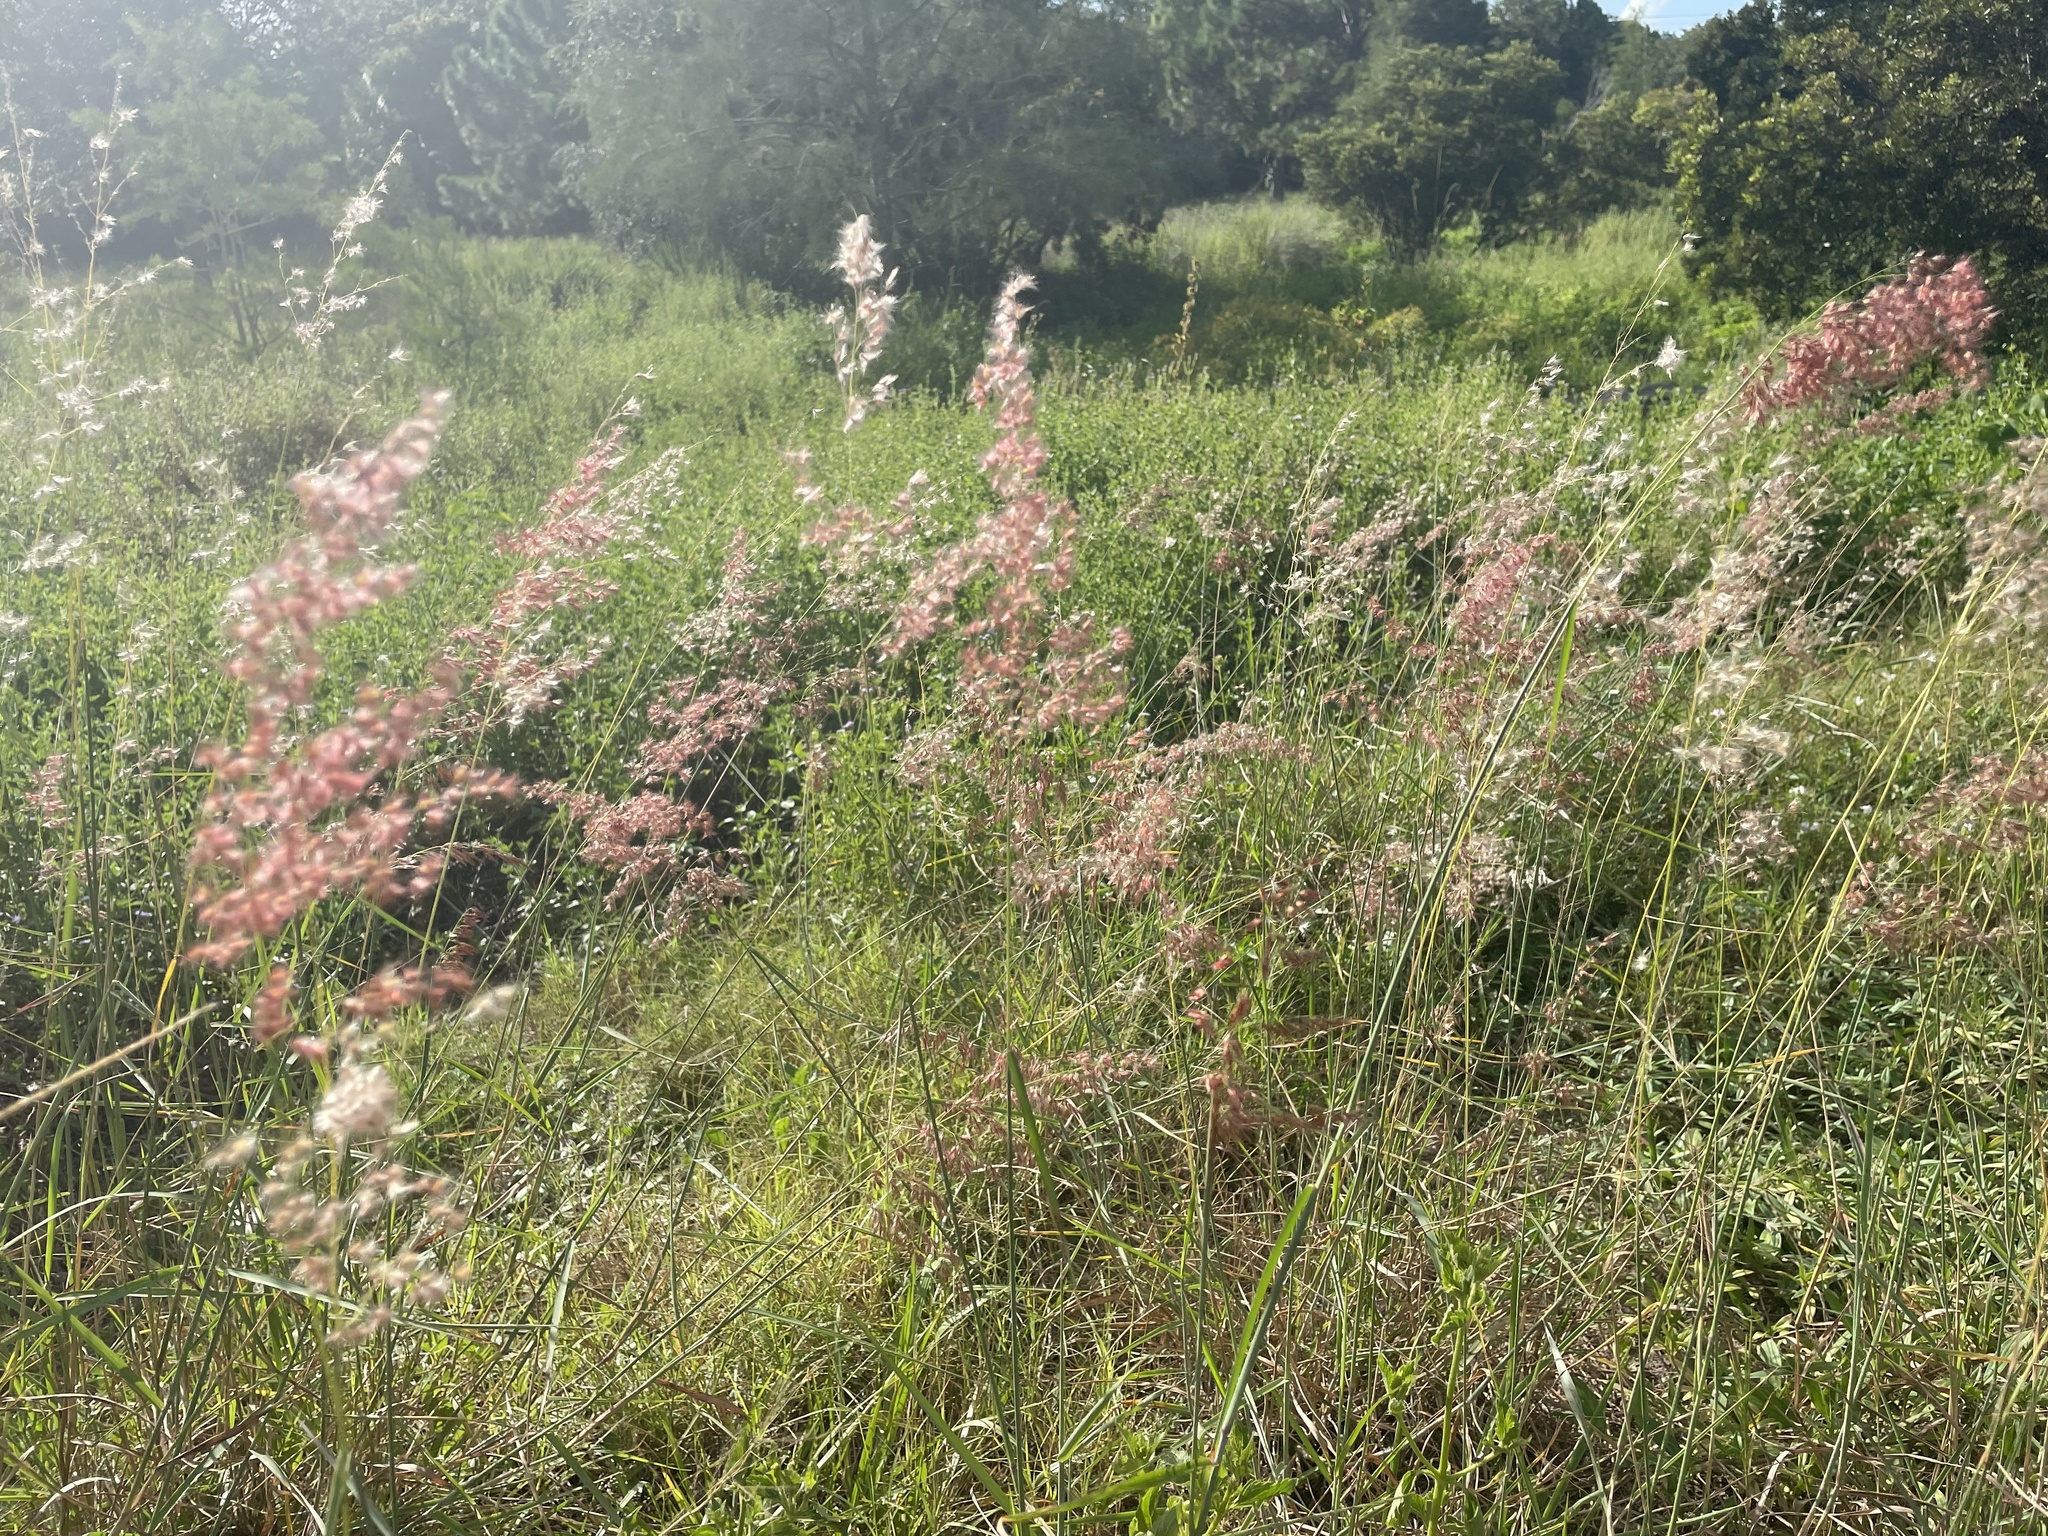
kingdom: Plantae
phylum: Tracheophyta
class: Liliopsida
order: Poales
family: Poaceae
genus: Melinis
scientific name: Melinis repens
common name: Rose natal grass
